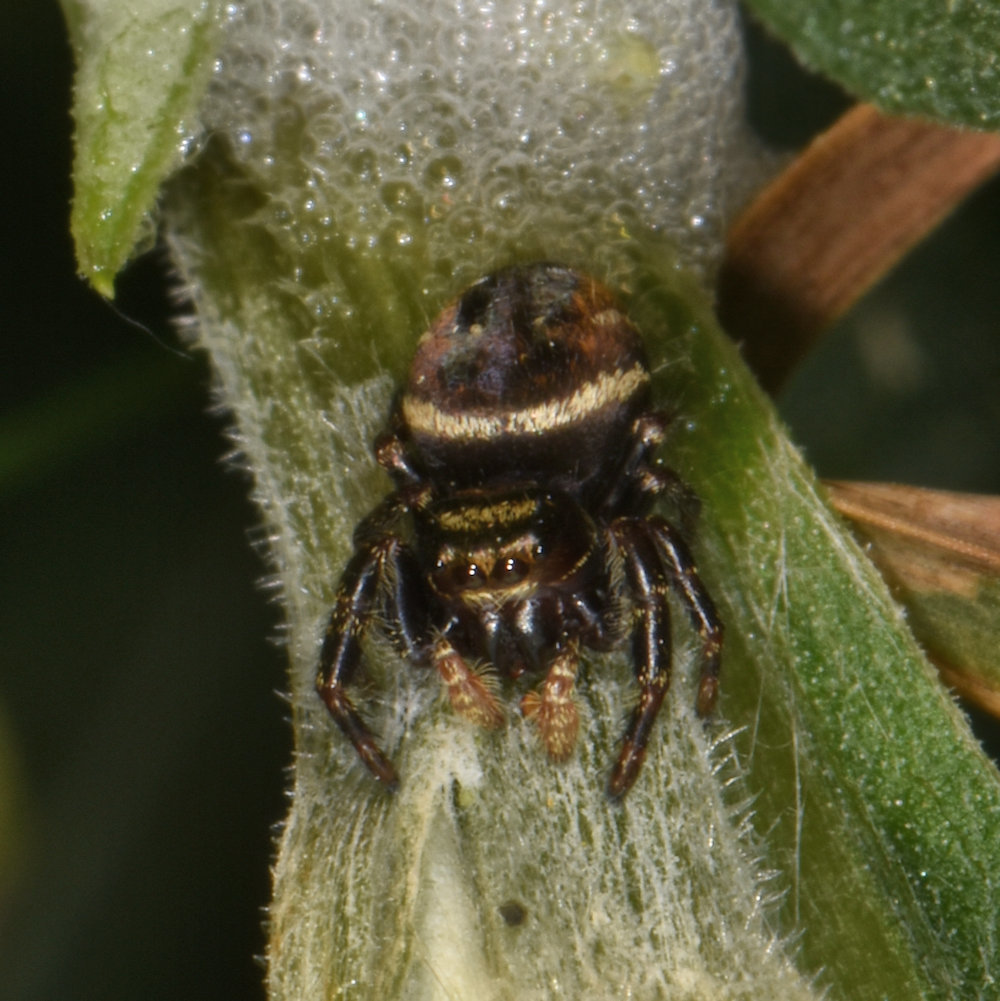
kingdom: Animalia
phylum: Arthropoda
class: Arachnida
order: Araneae
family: Salticidae
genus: Phidippus
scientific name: Phidippus clarus
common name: Brilliant jumping spider
